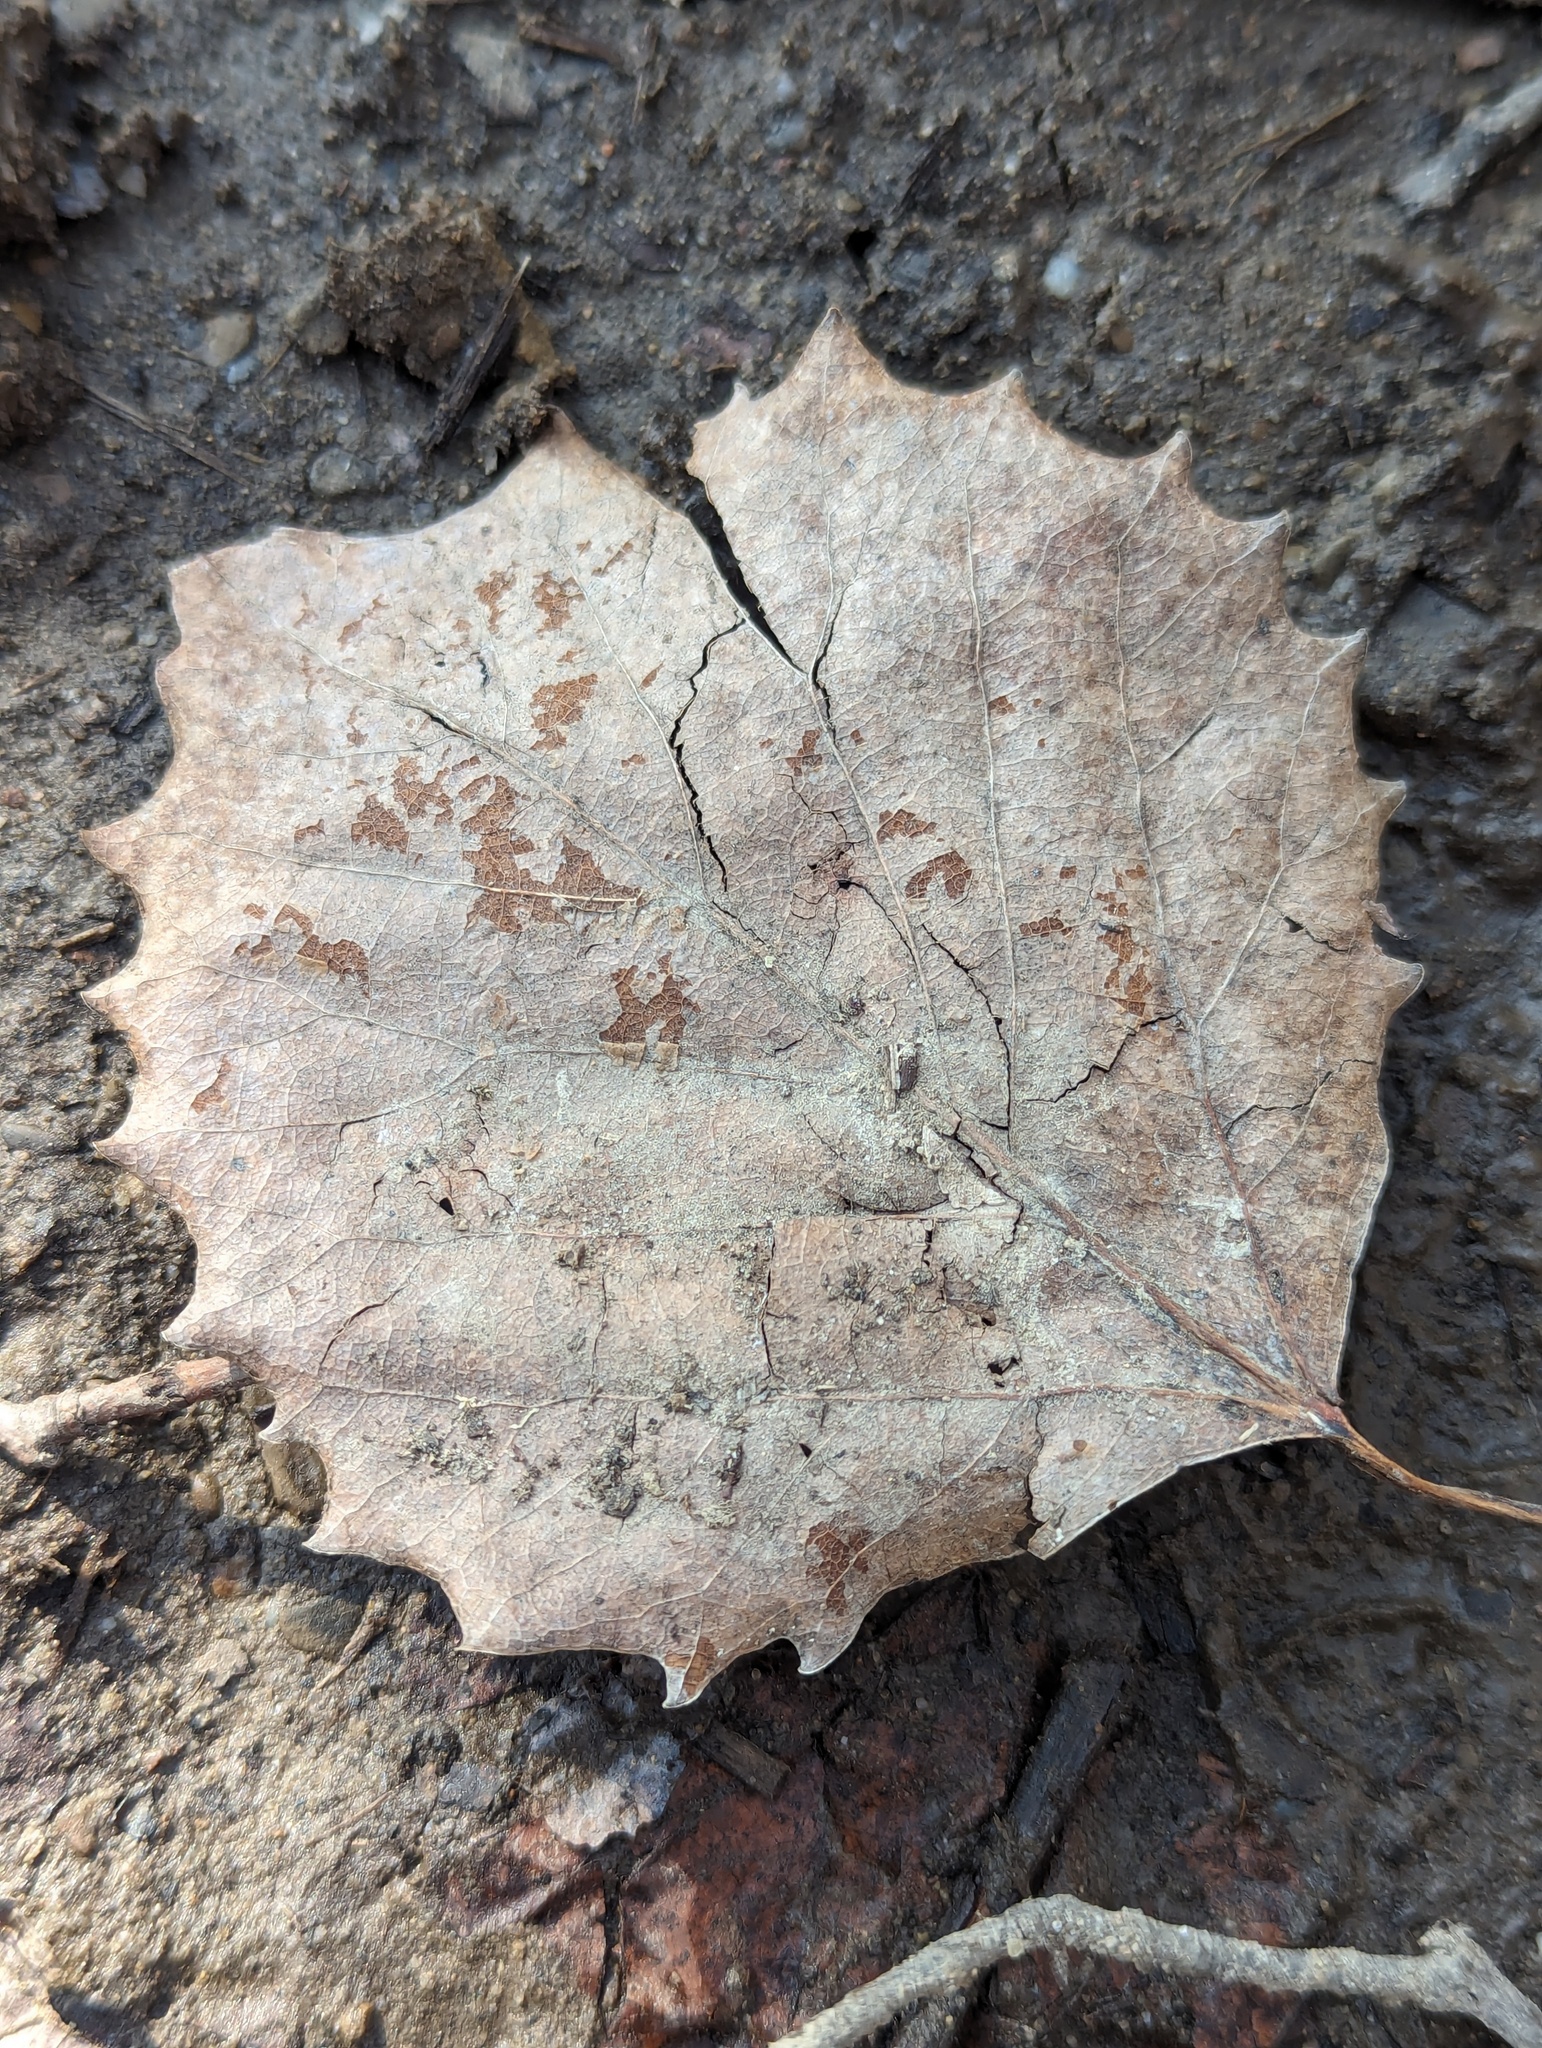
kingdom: Plantae
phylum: Tracheophyta
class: Magnoliopsida
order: Malpighiales
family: Salicaceae
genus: Populus
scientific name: Populus grandidentata
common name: Bigtooth aspen
